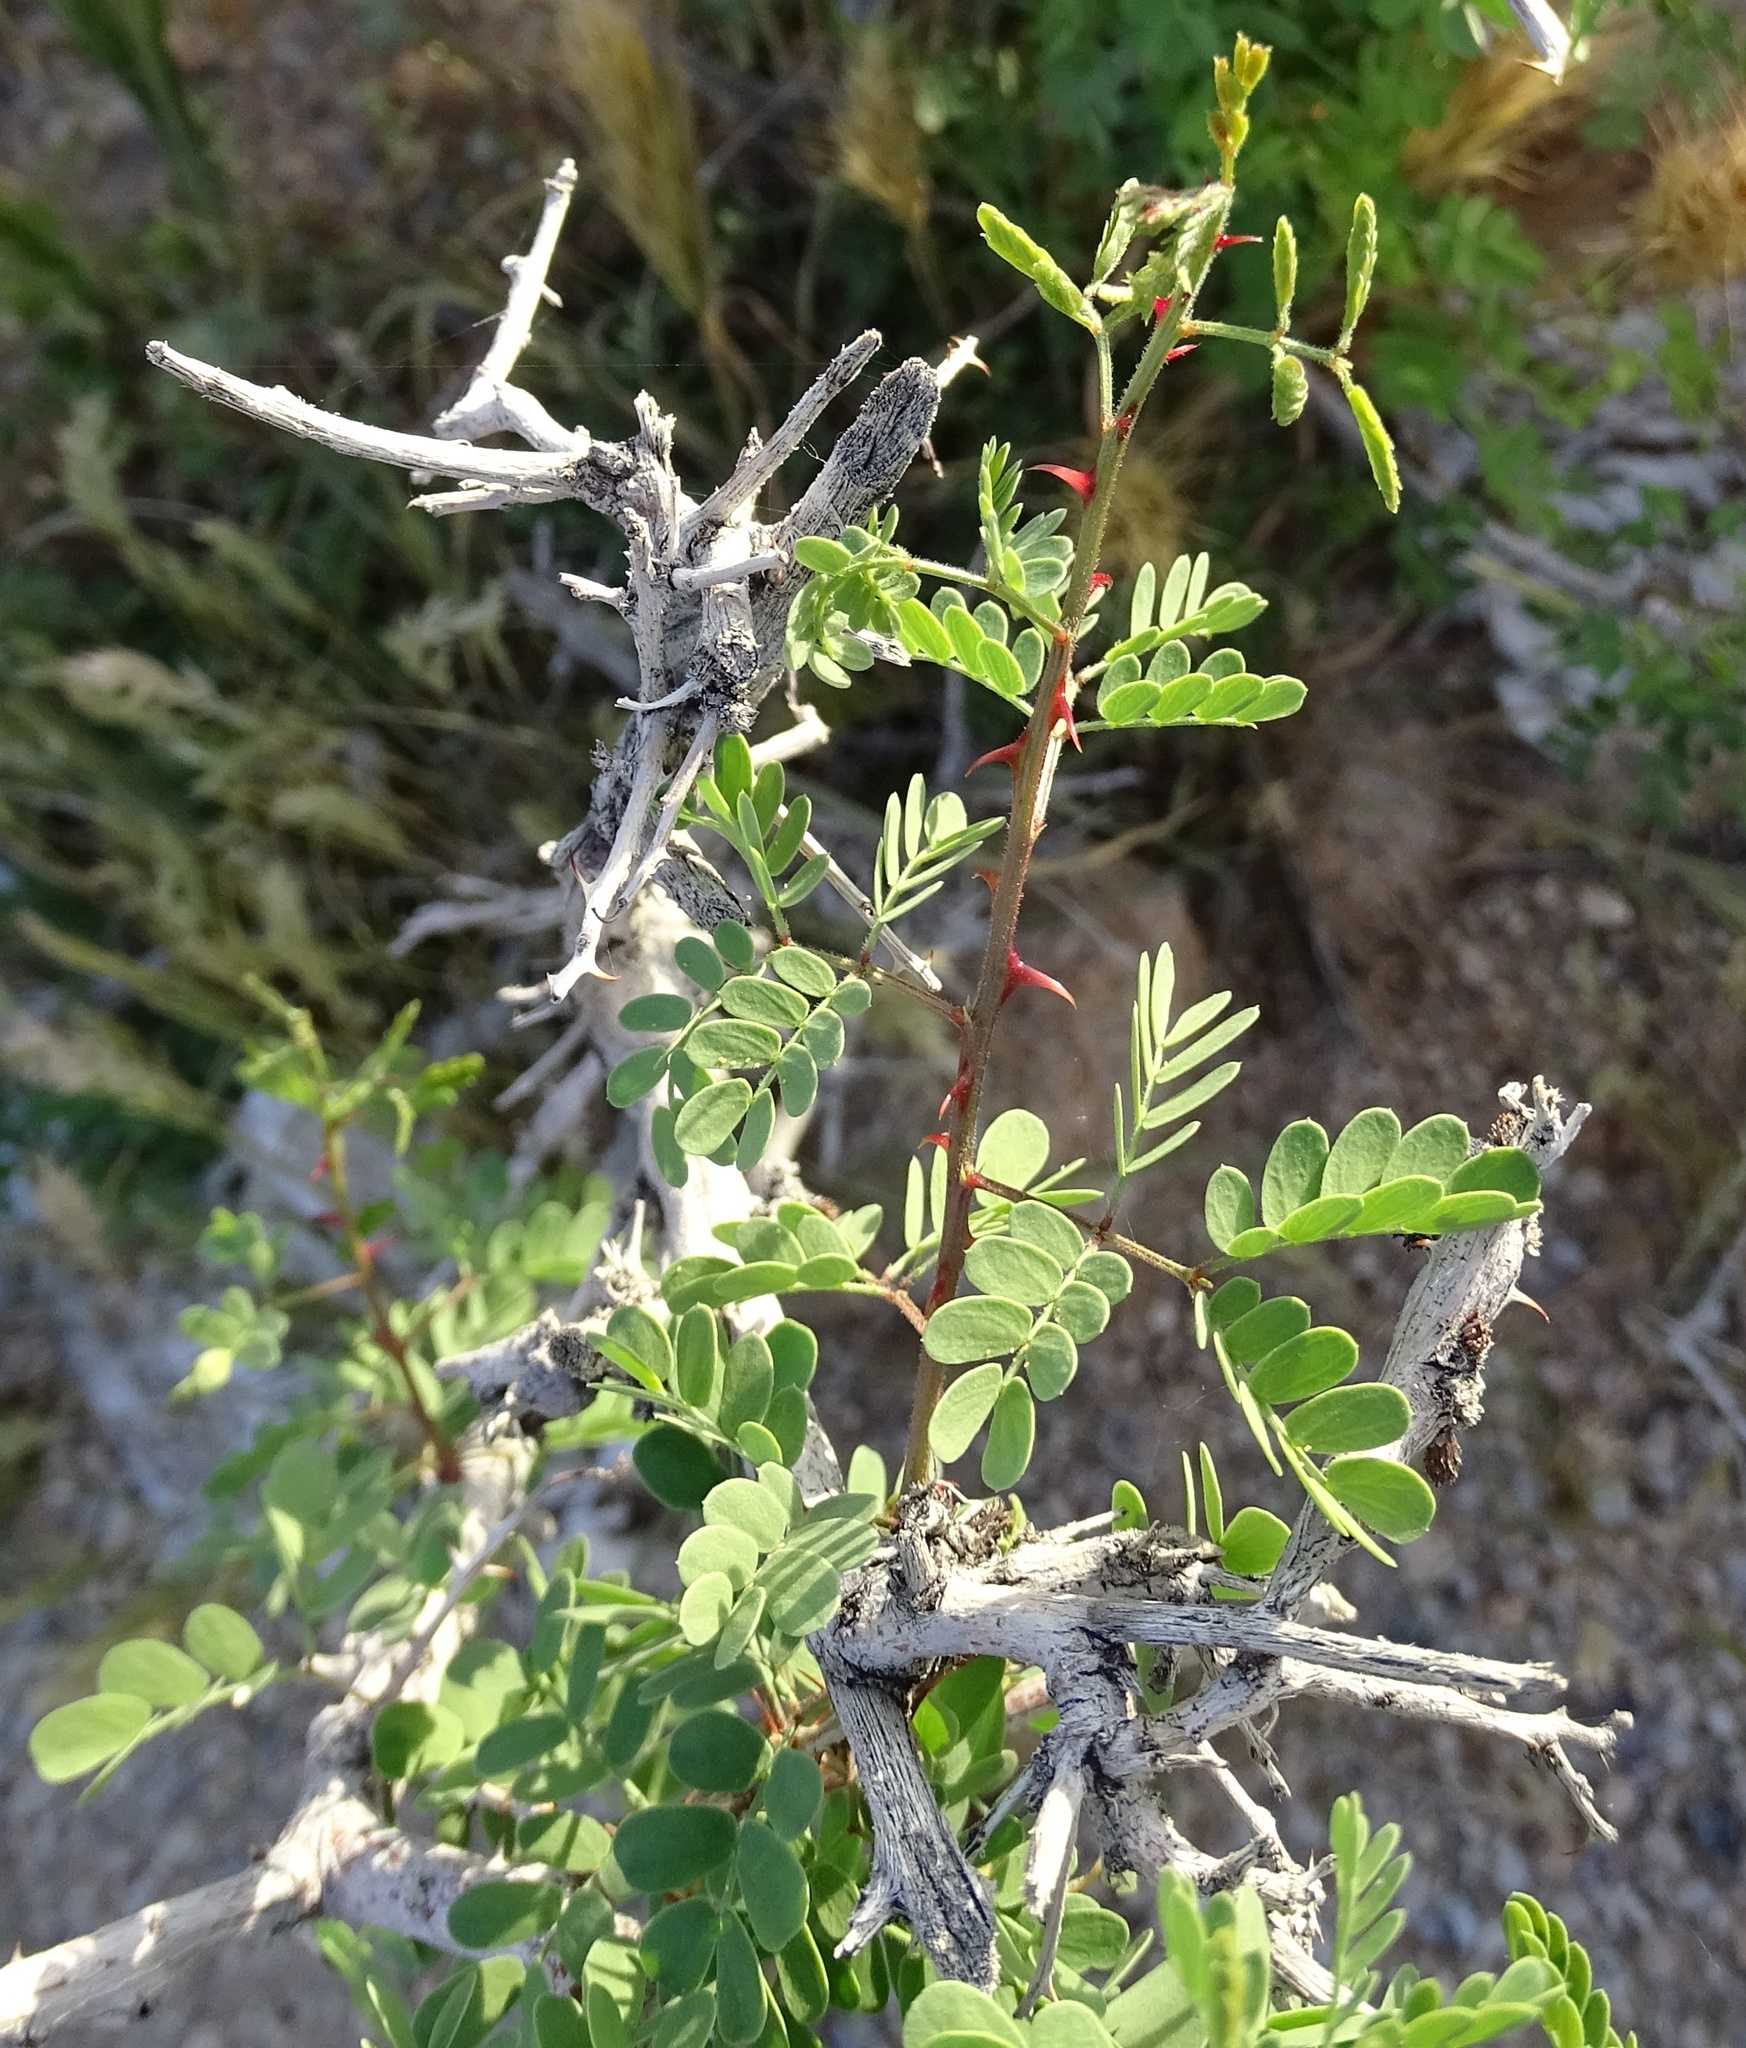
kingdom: Plantae
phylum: Tracheophyta
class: Magnoliopsida
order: Fabales
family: Fabaceae
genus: Senegalia
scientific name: Senegalia greggii
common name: Texas-mimosa
